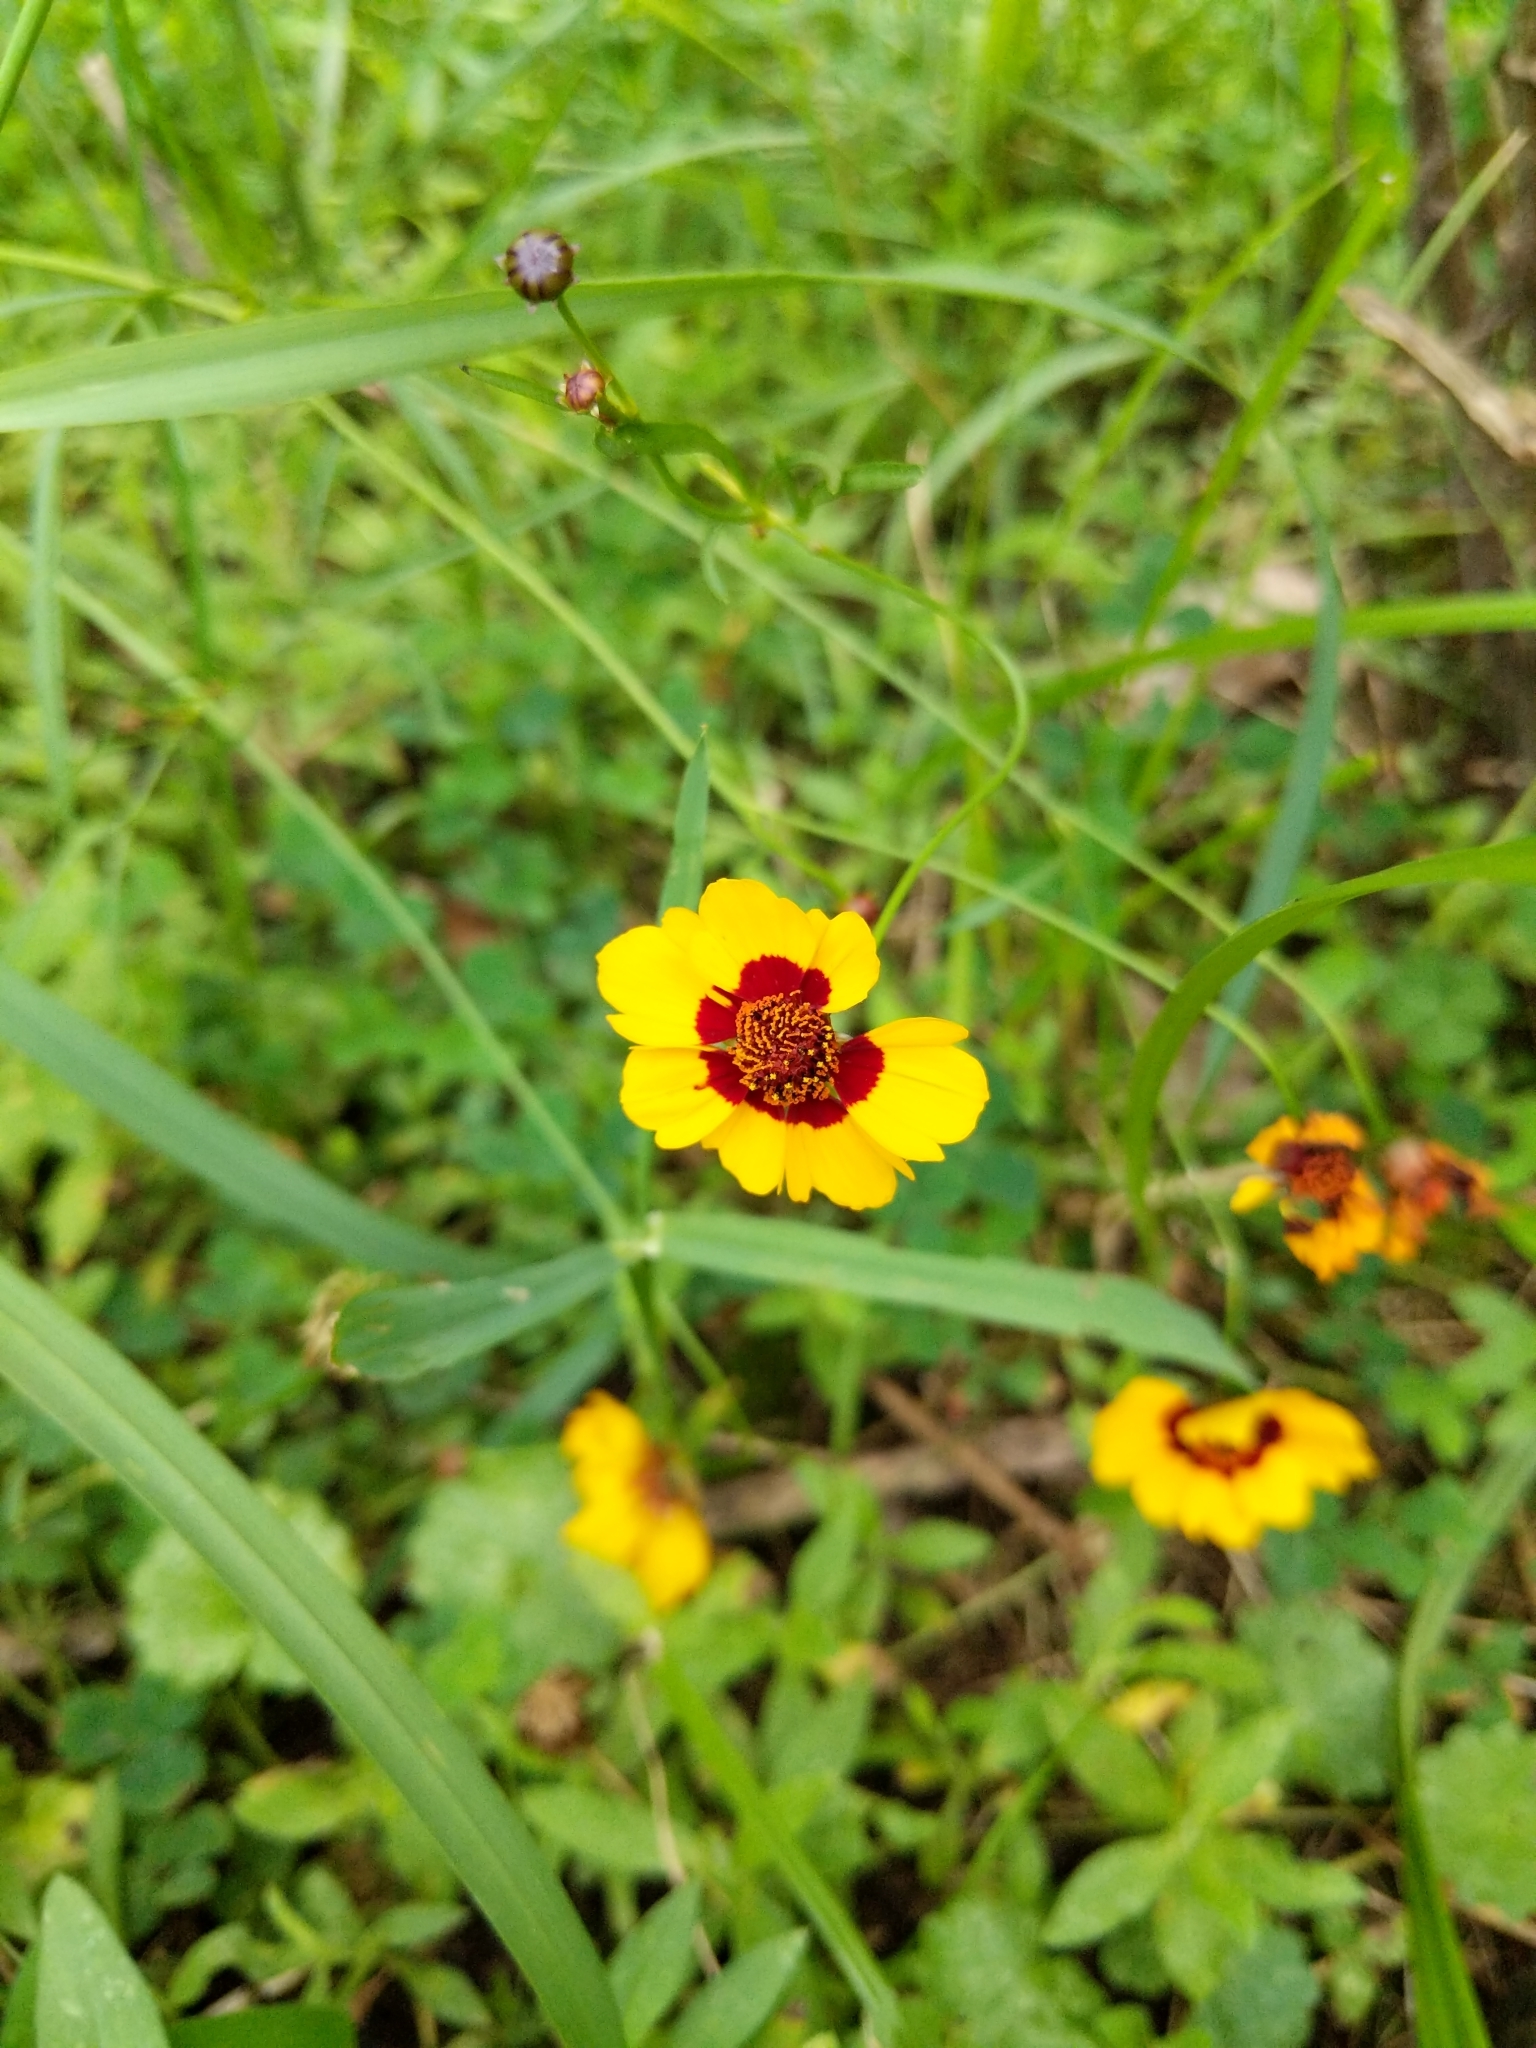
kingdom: Plantae
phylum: Tracheophyta
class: Magnoliopsida
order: Asterales
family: Asteraceae
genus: Coreopsis
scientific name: Coreopsis tinctoria
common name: Garden tickseed
